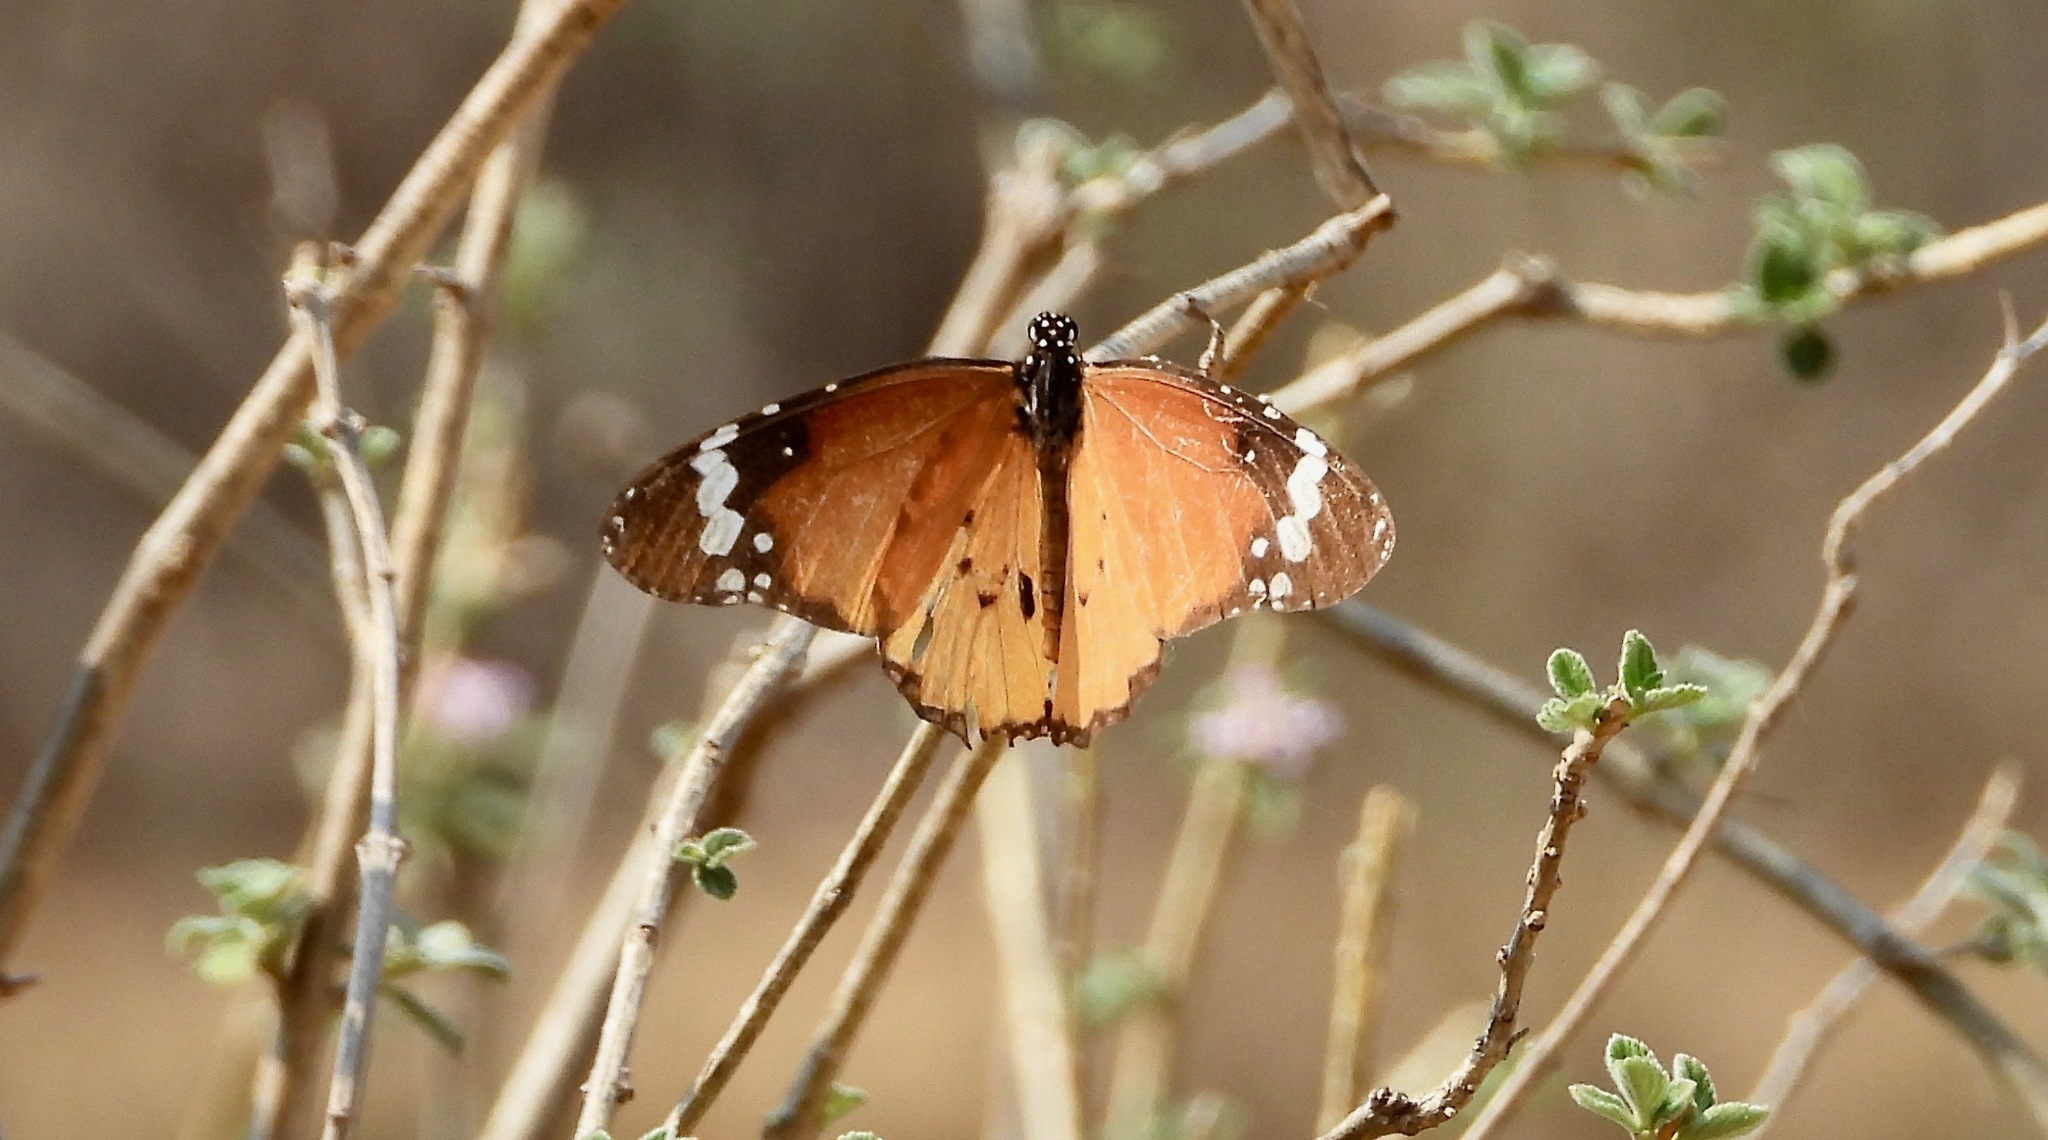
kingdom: Animalia
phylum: Arthropoda
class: Insecta
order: Lepidoptera
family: Nymphalidae
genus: Danaus
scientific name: Danaus chrysippus
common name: Plain tiger
